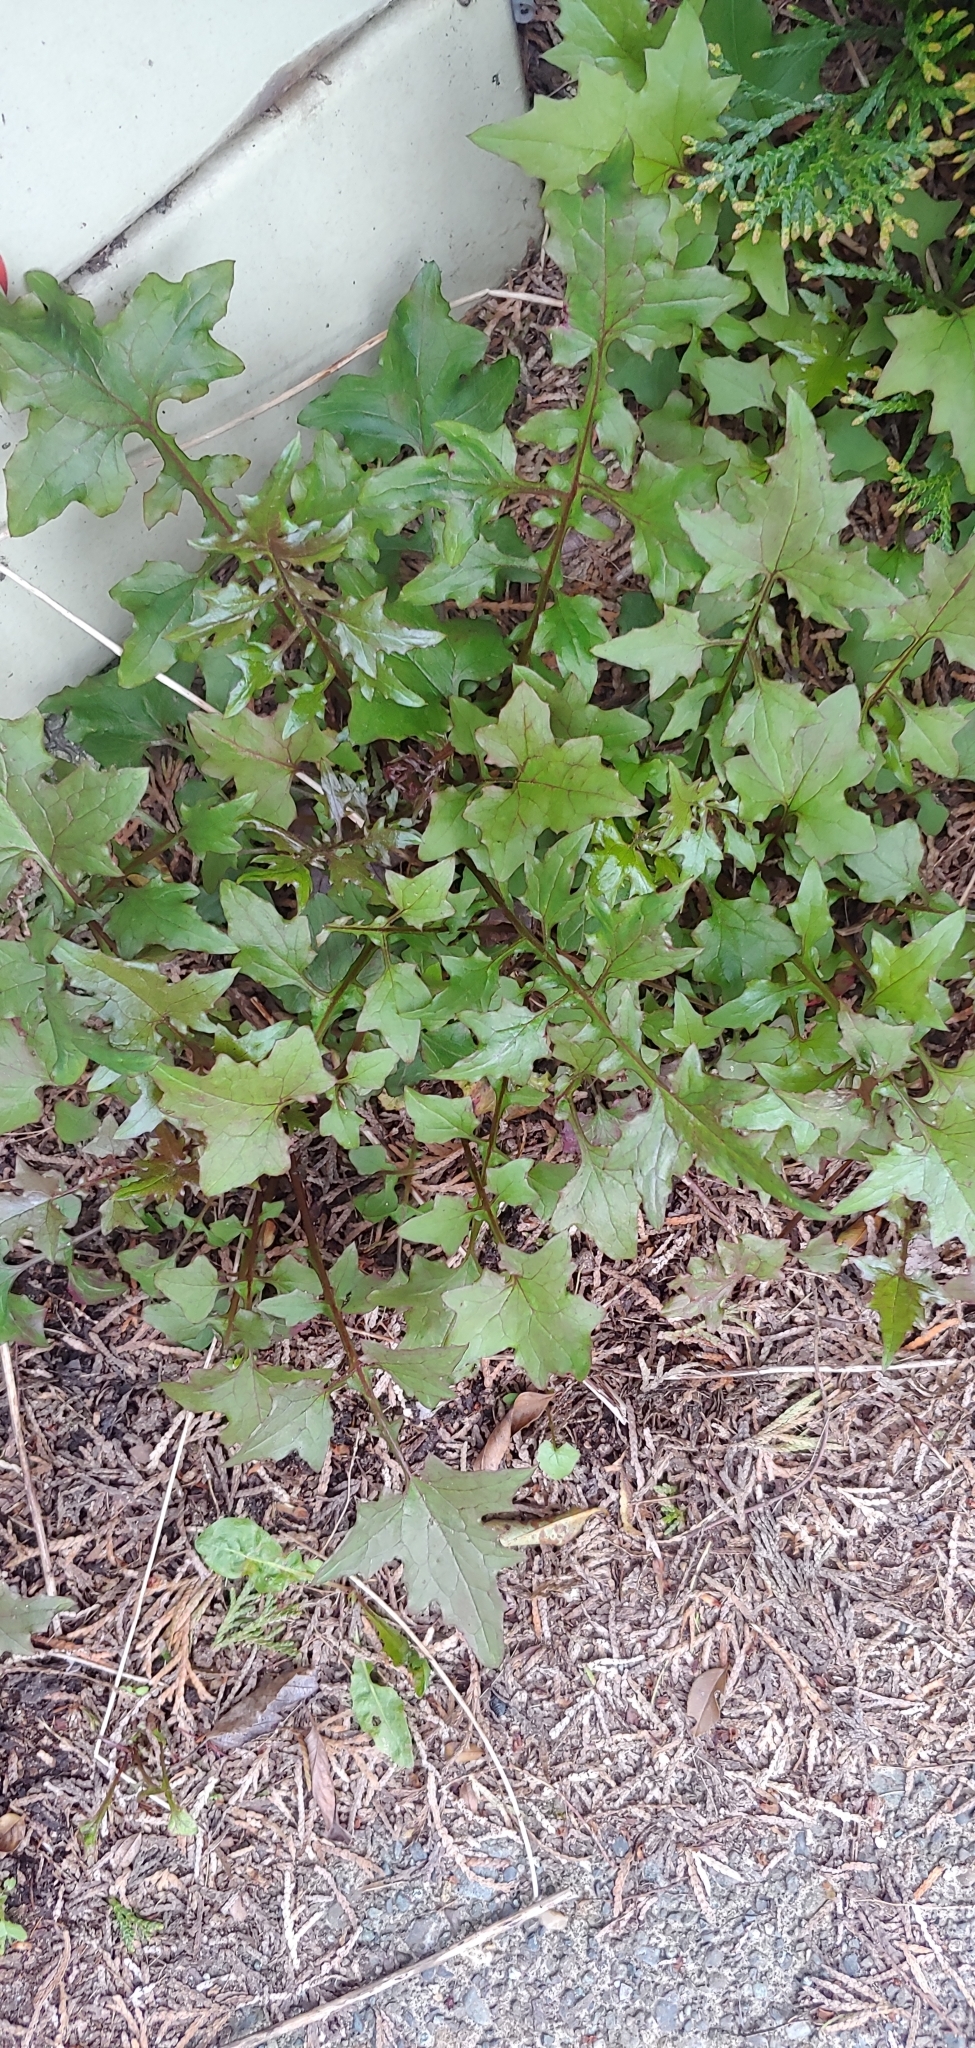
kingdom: Plantae
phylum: Tracheophyta
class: Magnoliopsida
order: Asterales
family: Asteraceae
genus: Mycelis
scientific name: Mycelis muralis
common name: Wall lettuce
